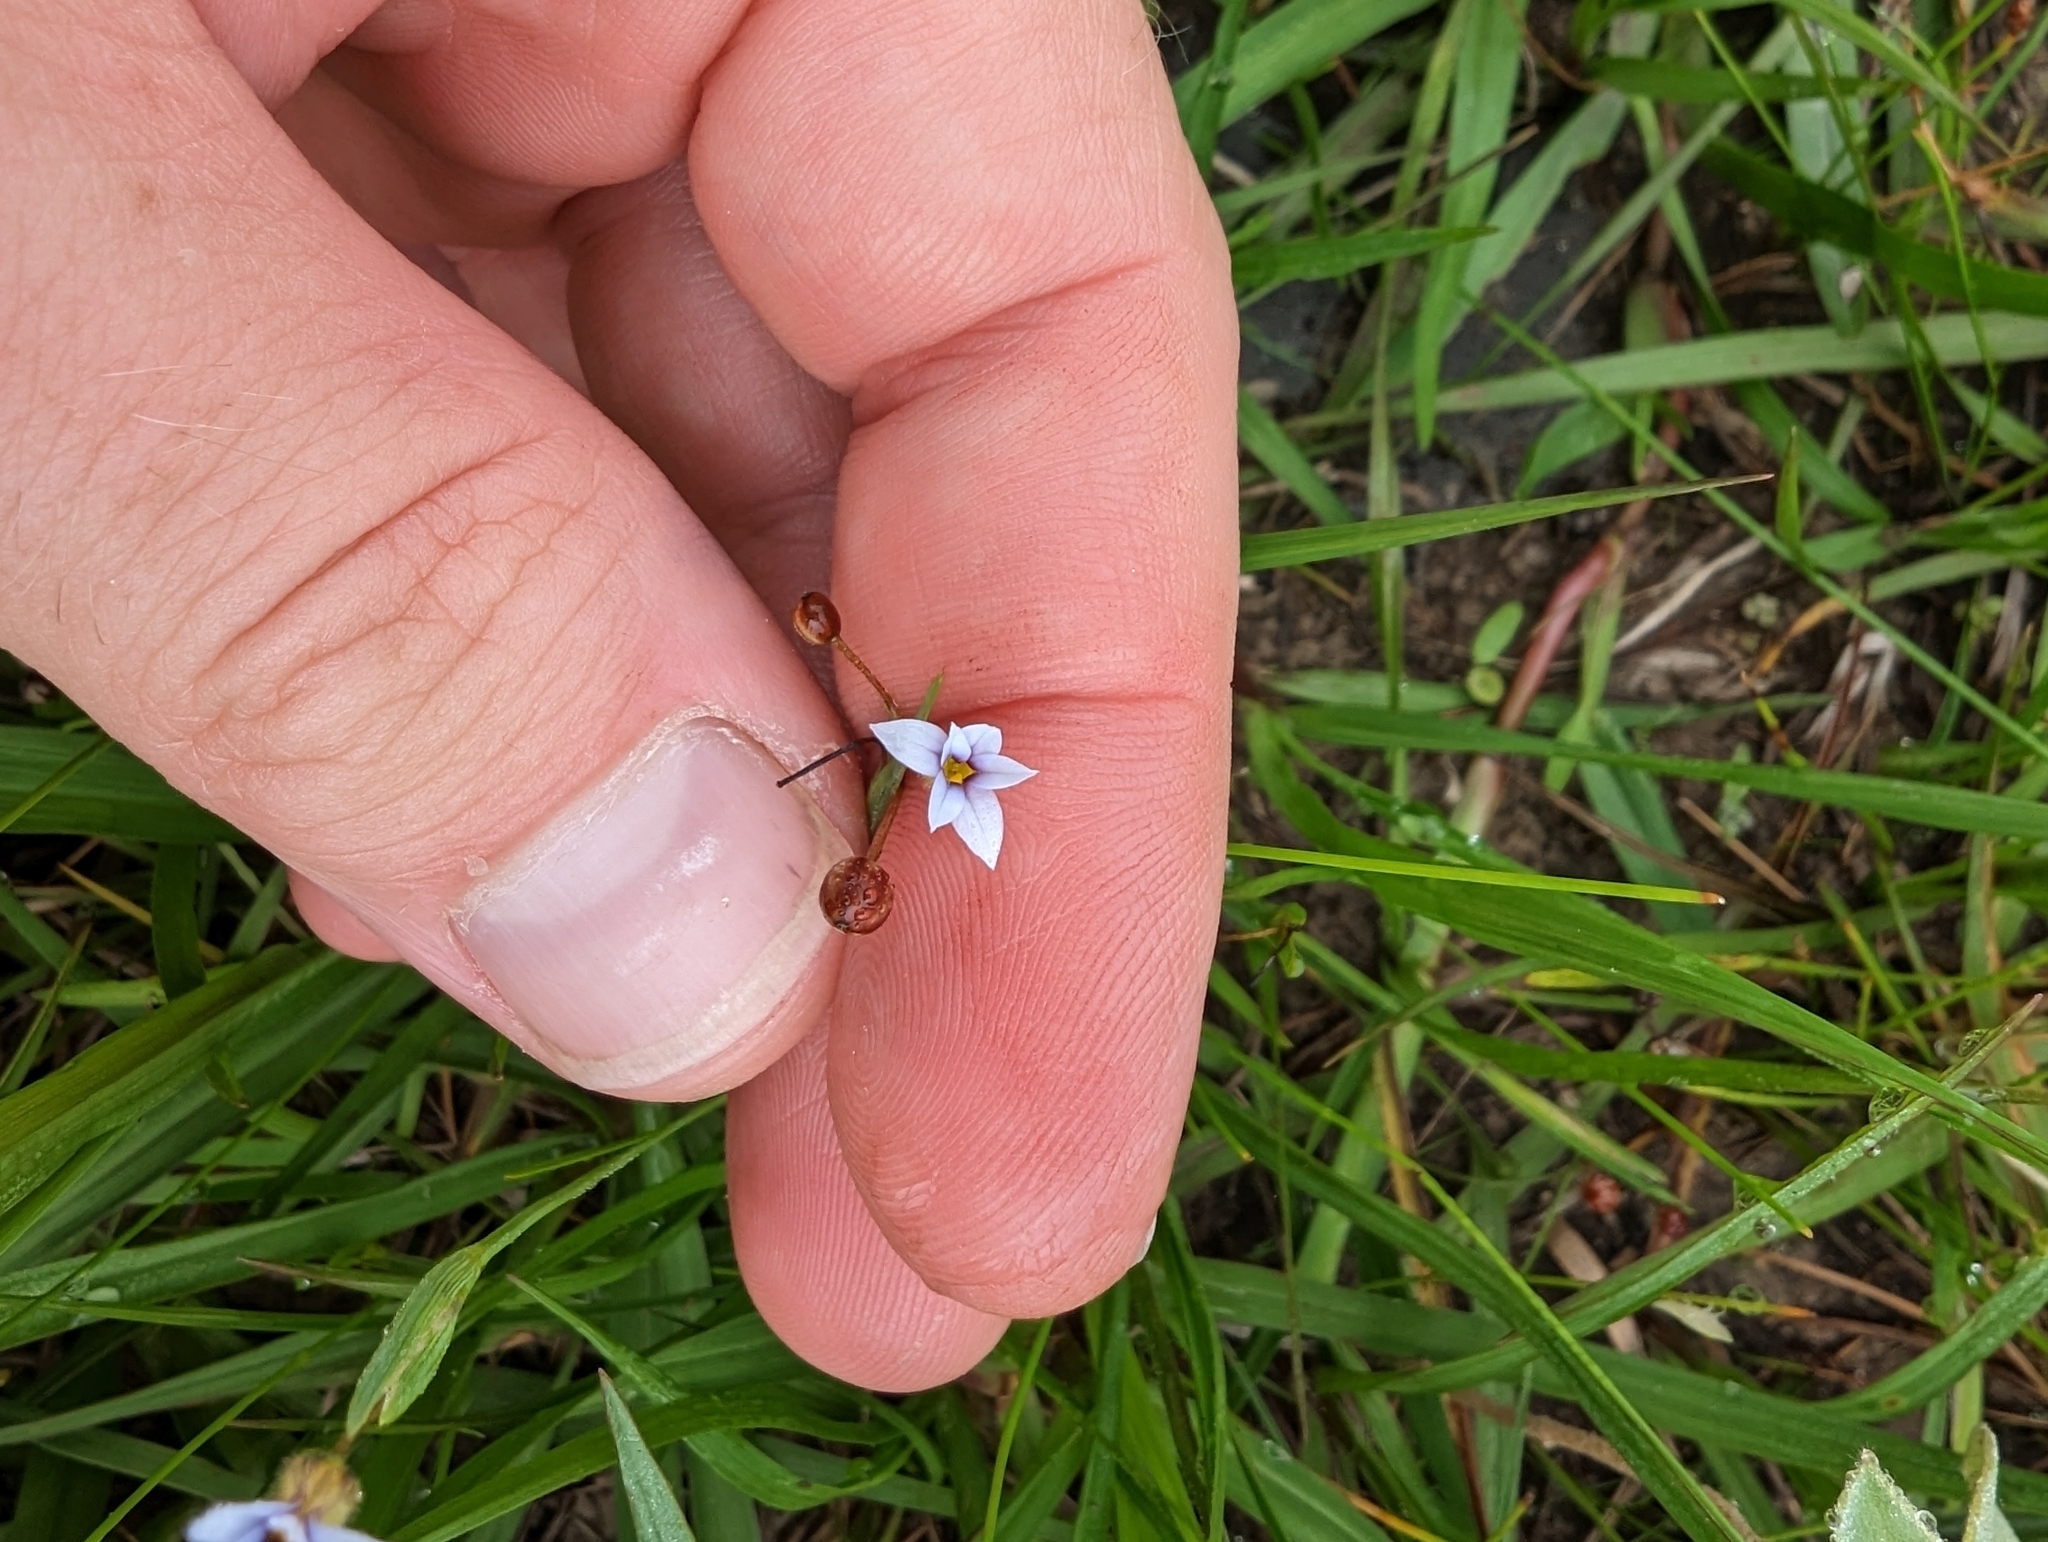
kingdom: Plantae
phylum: Tracheophyta
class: Liliopsida
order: Asparagales
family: Iridaceae
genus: Sisyrinchium
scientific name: Sisyrinchium micranthum
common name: Bermuda pigroot
